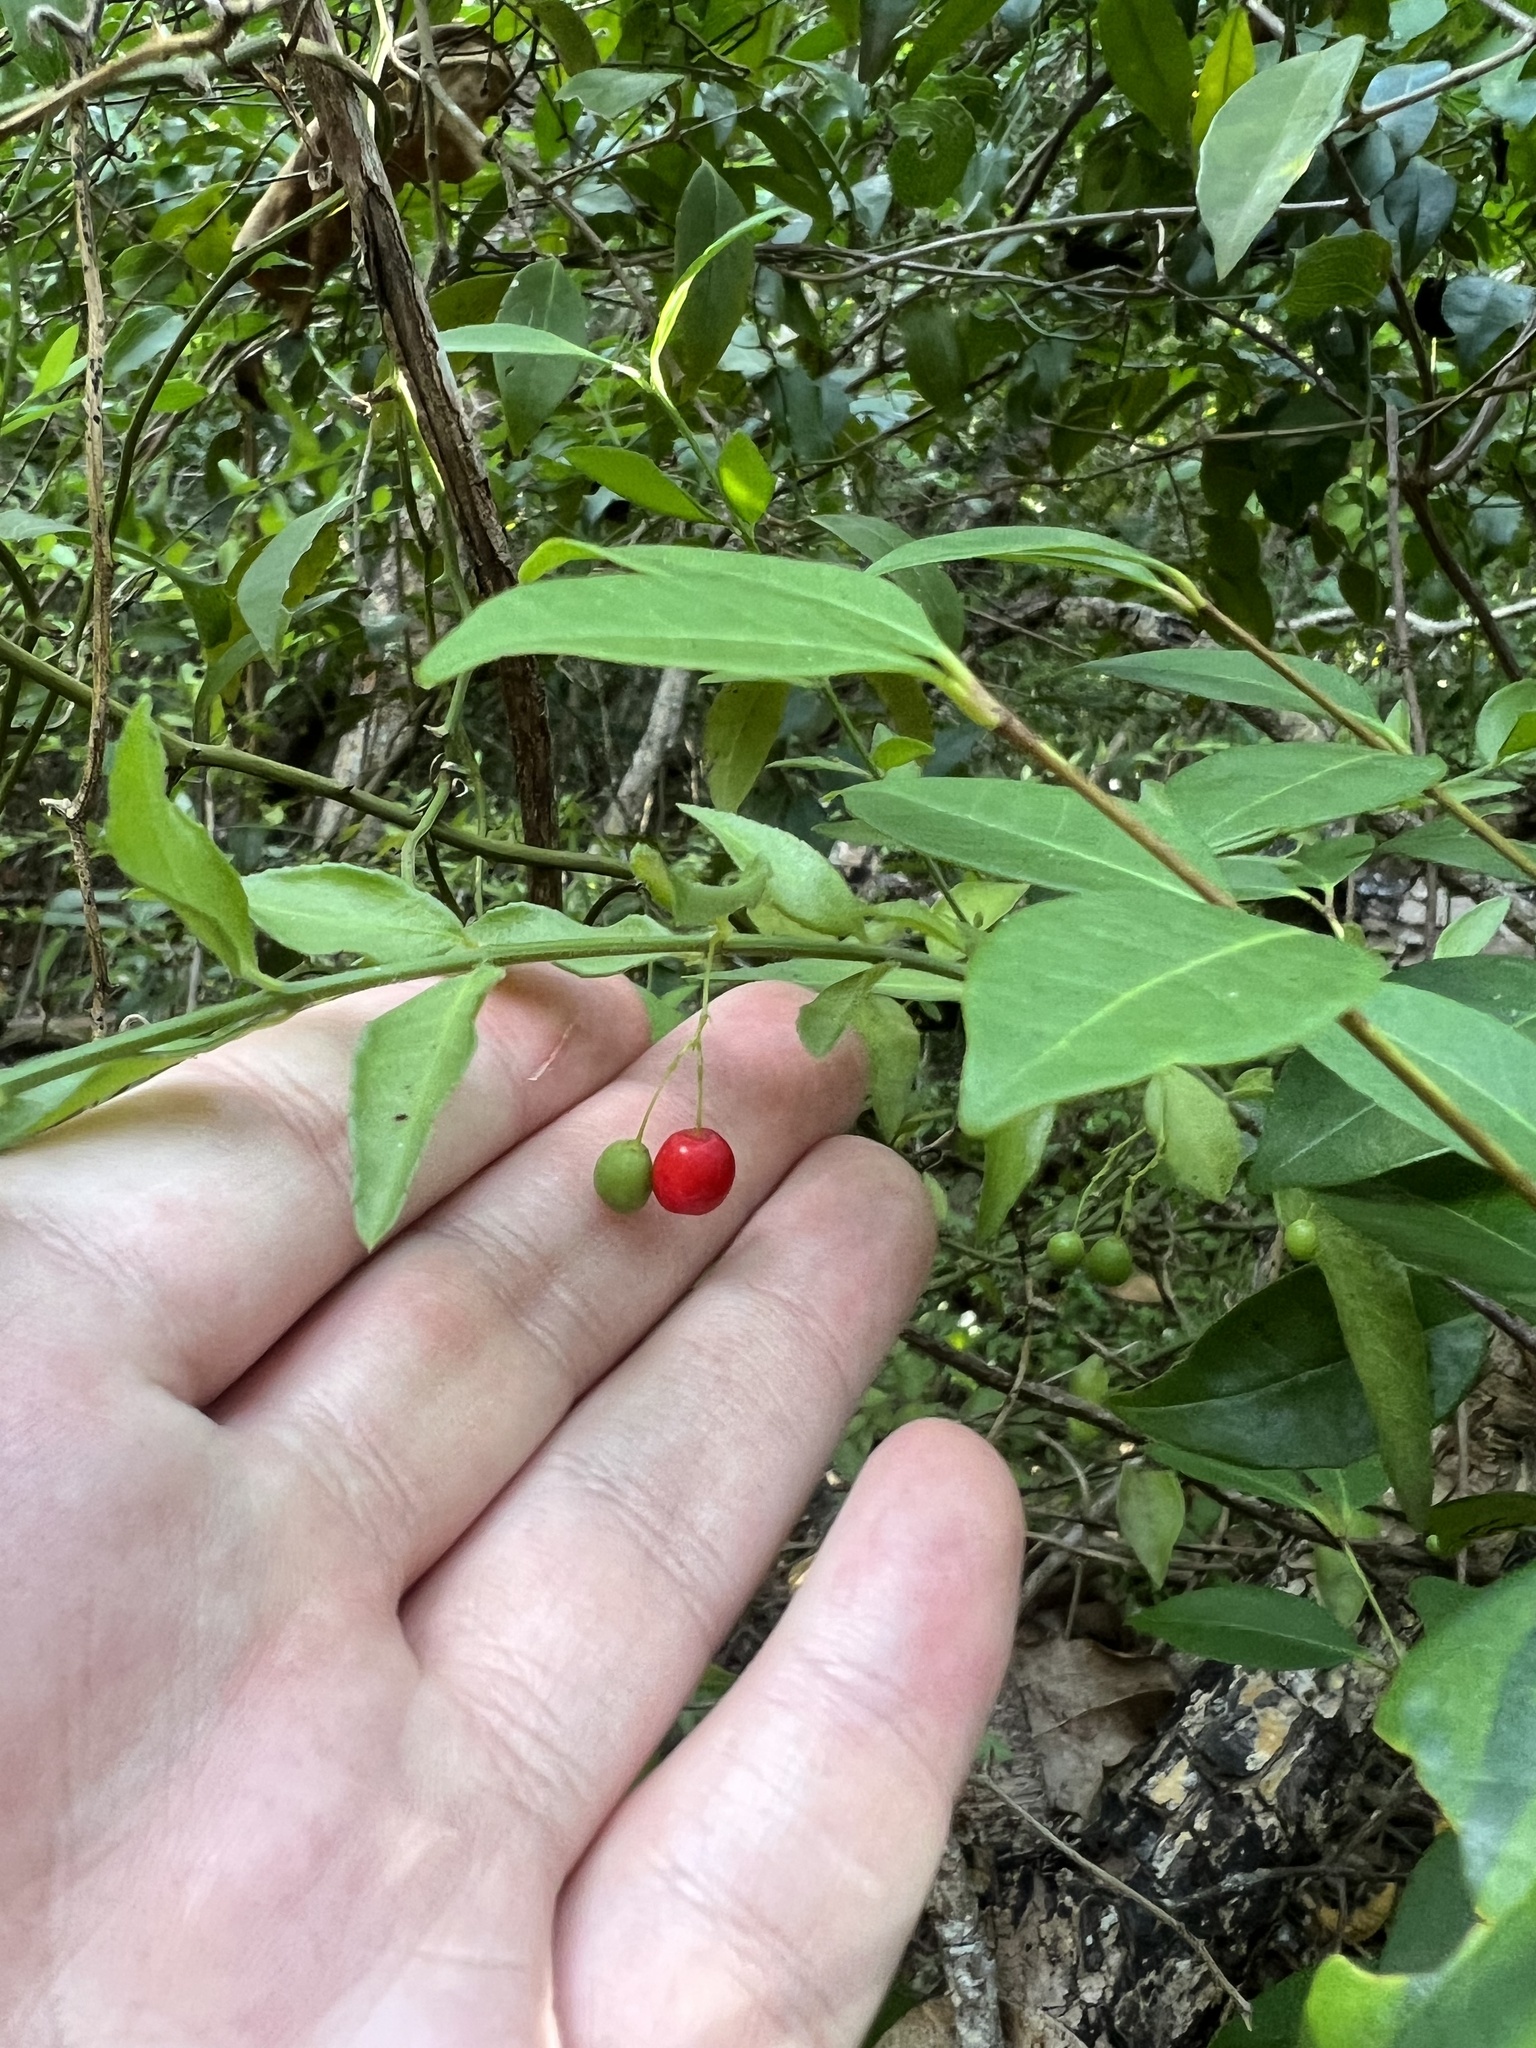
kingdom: Plantae
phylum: Tracheophyta
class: Magnoliopsida
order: Celastrales
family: Celastraceae
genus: Crossopetalum
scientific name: Crossopetalum uragoga
